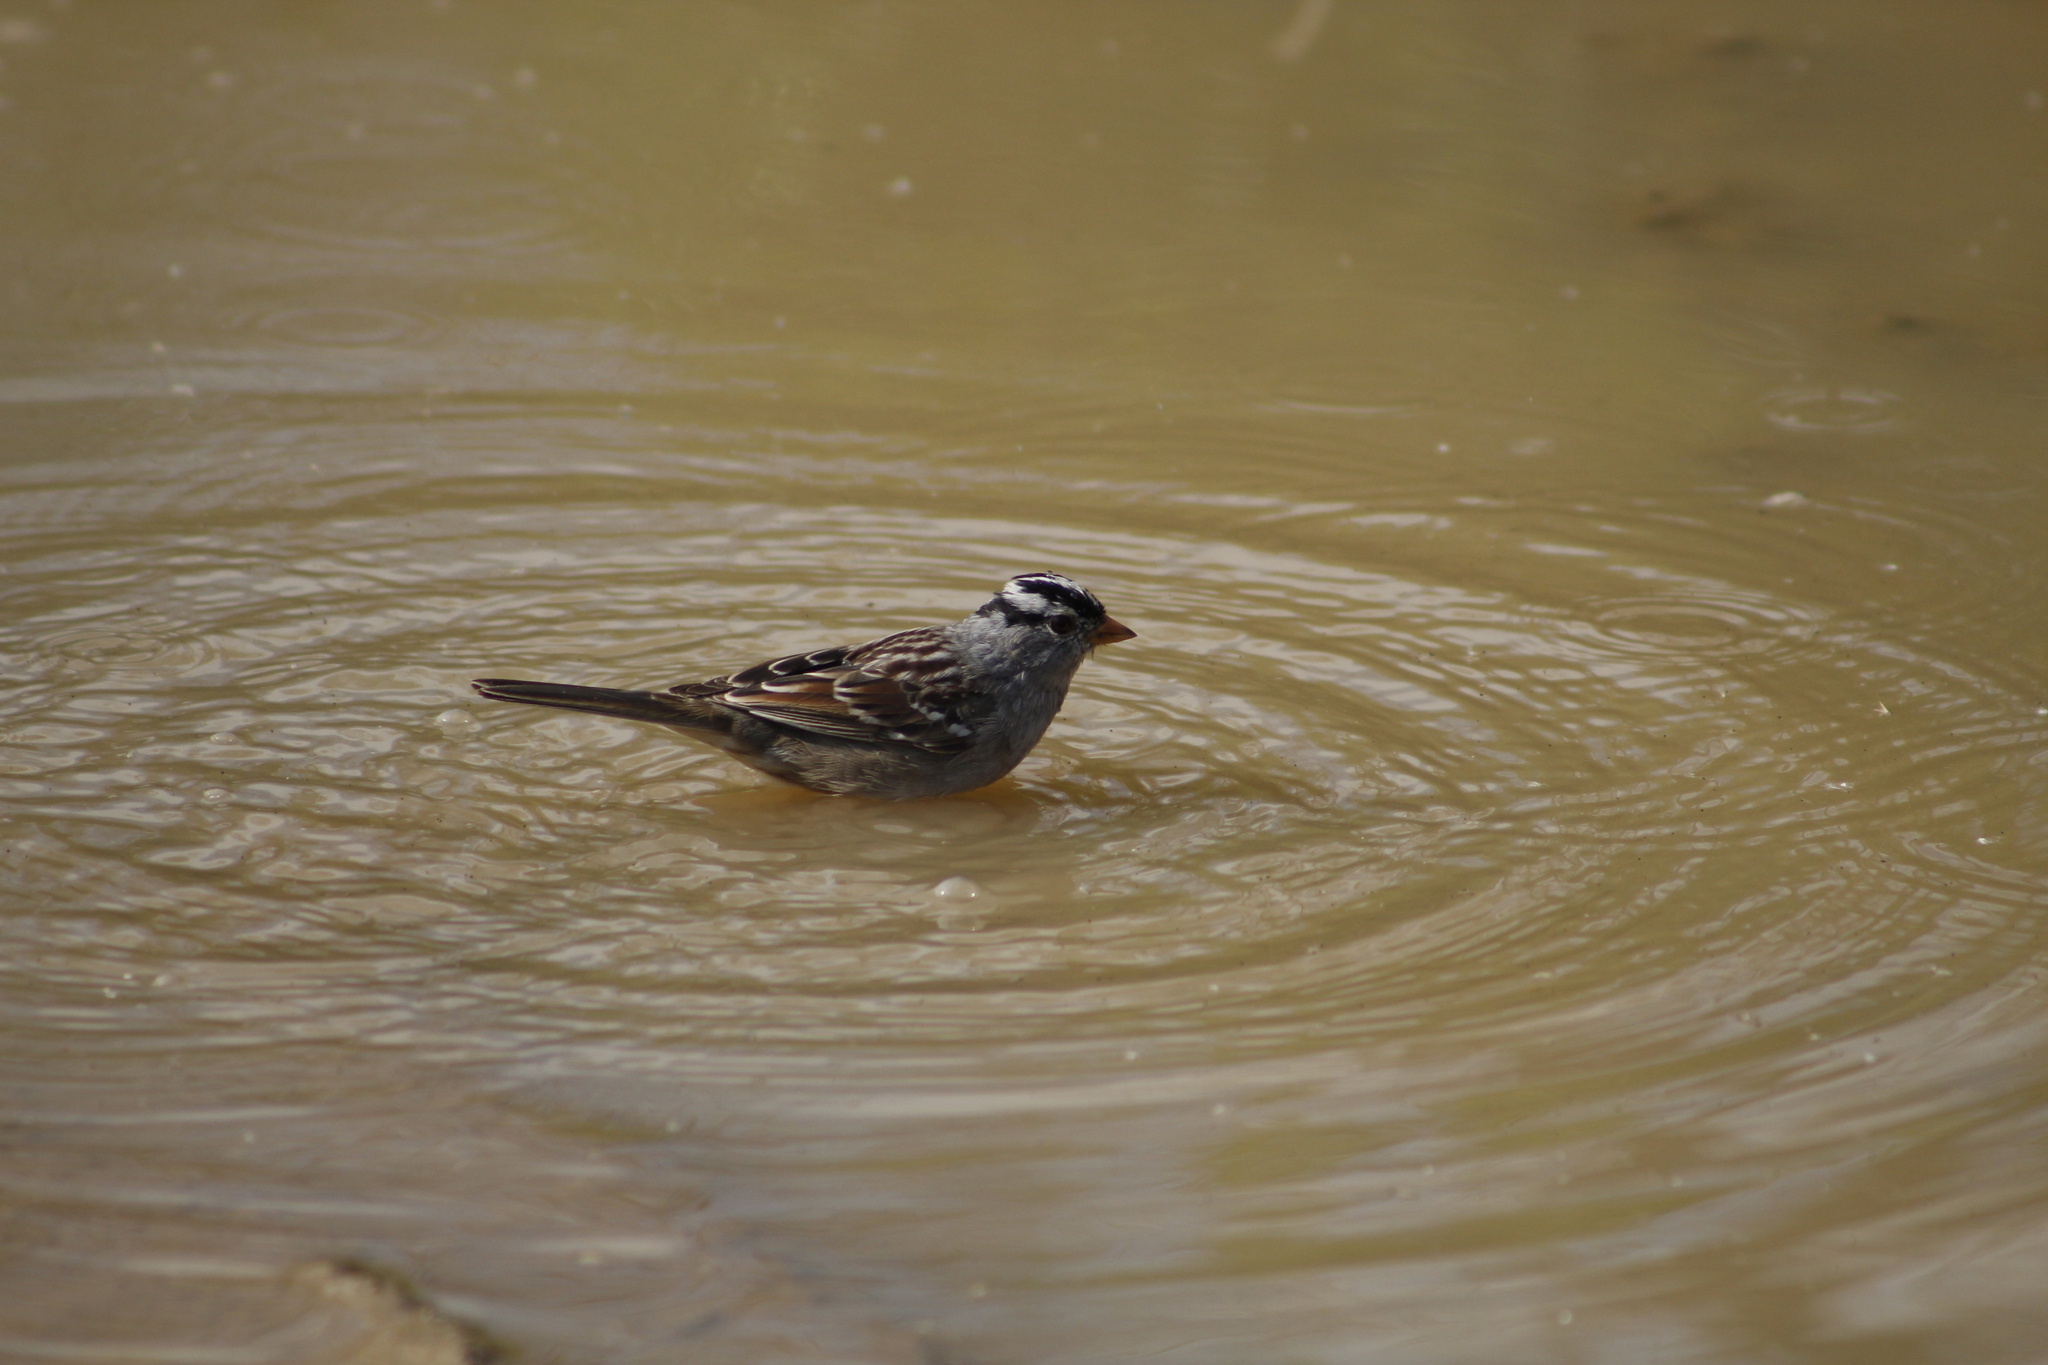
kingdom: Animalia
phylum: Chordata
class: Aves
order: Passeriformes
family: Passerellidae
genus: Zonotrichia
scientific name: Zonotrichia leucophrys
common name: White-crowned sparrow
